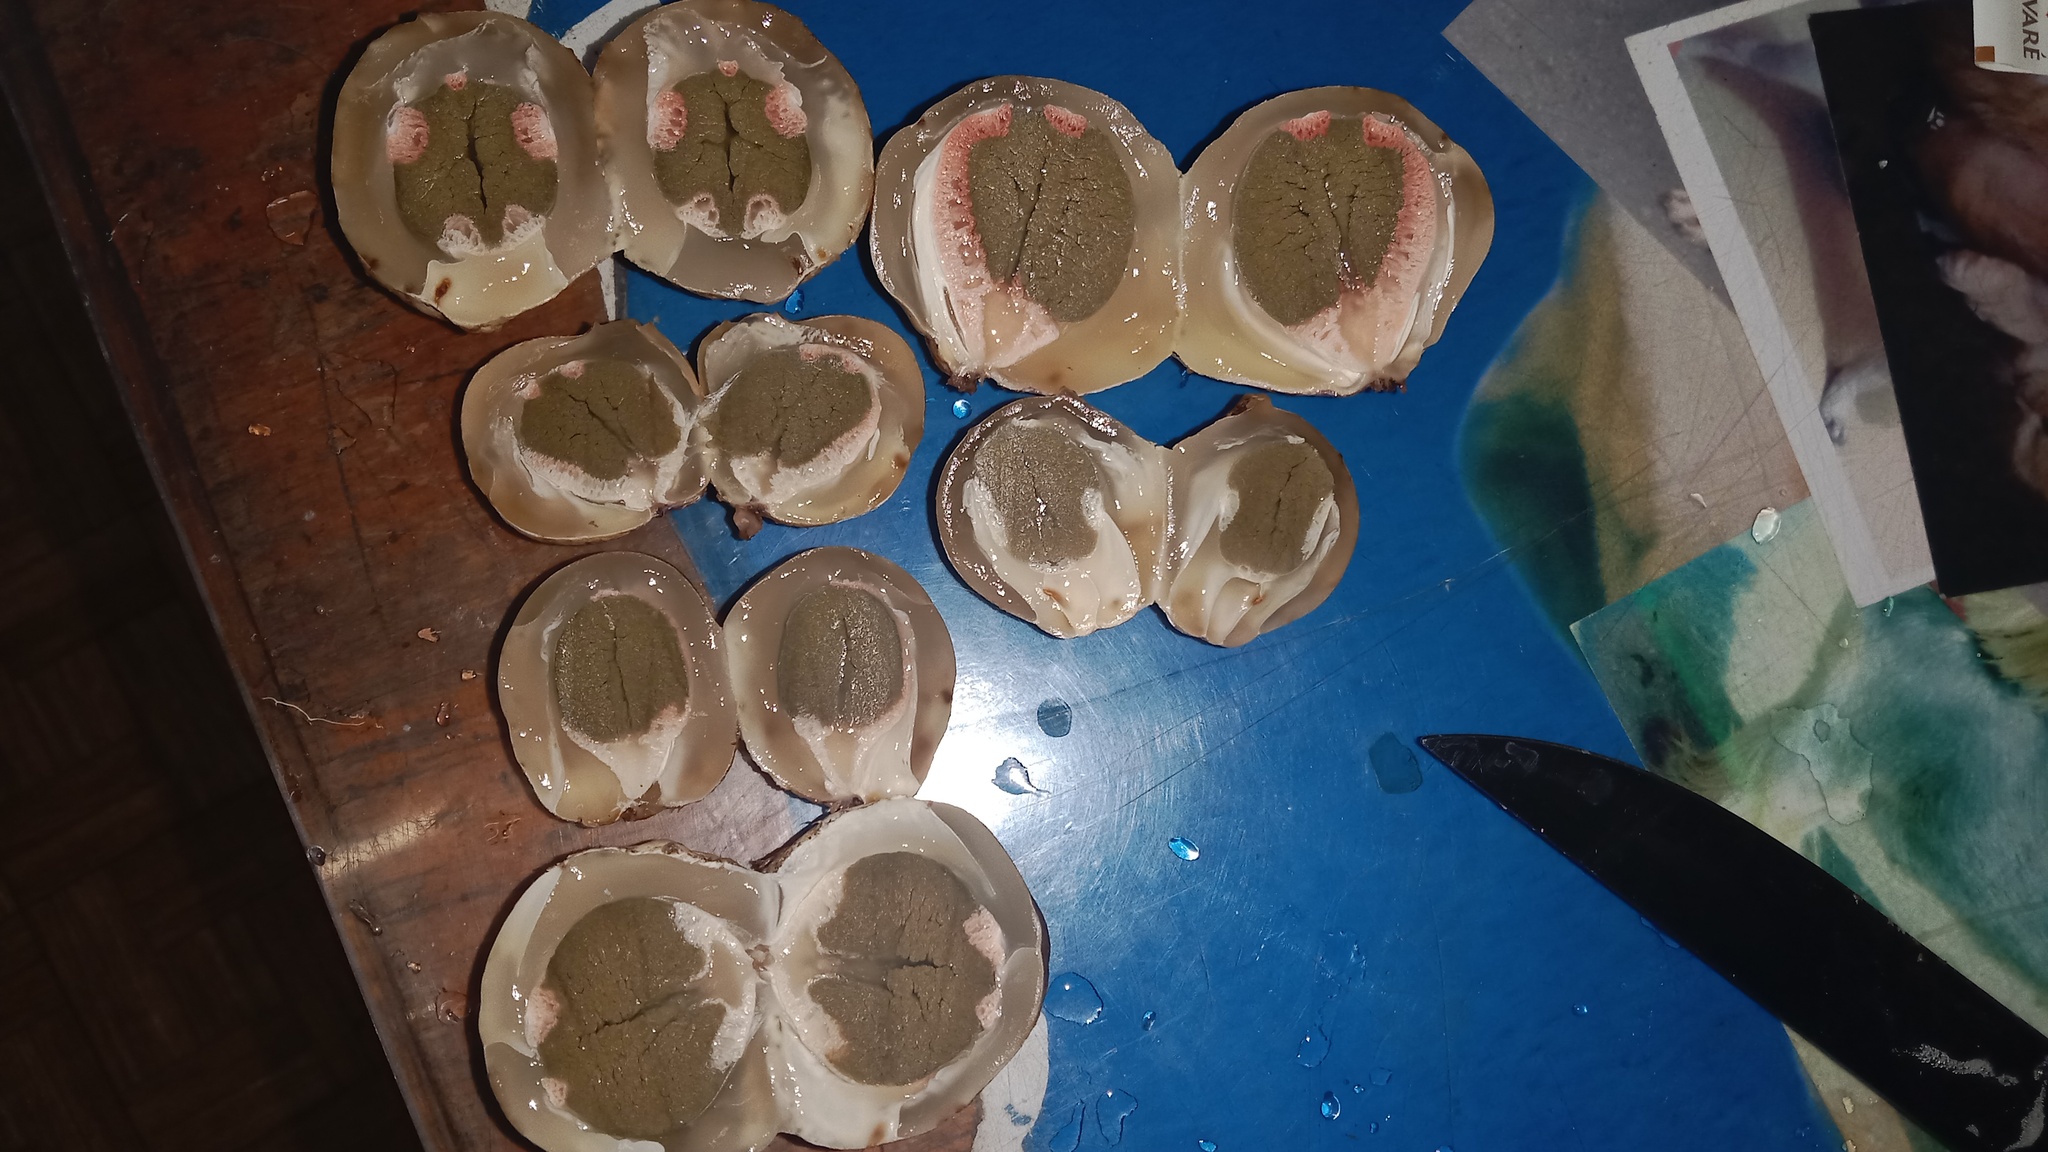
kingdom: Fungi
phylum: Basidiomycota
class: Agaricomycetes
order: Phallales
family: Phallaceae
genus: Clathrus
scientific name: Clathrus archeri
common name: Devil's fingers
